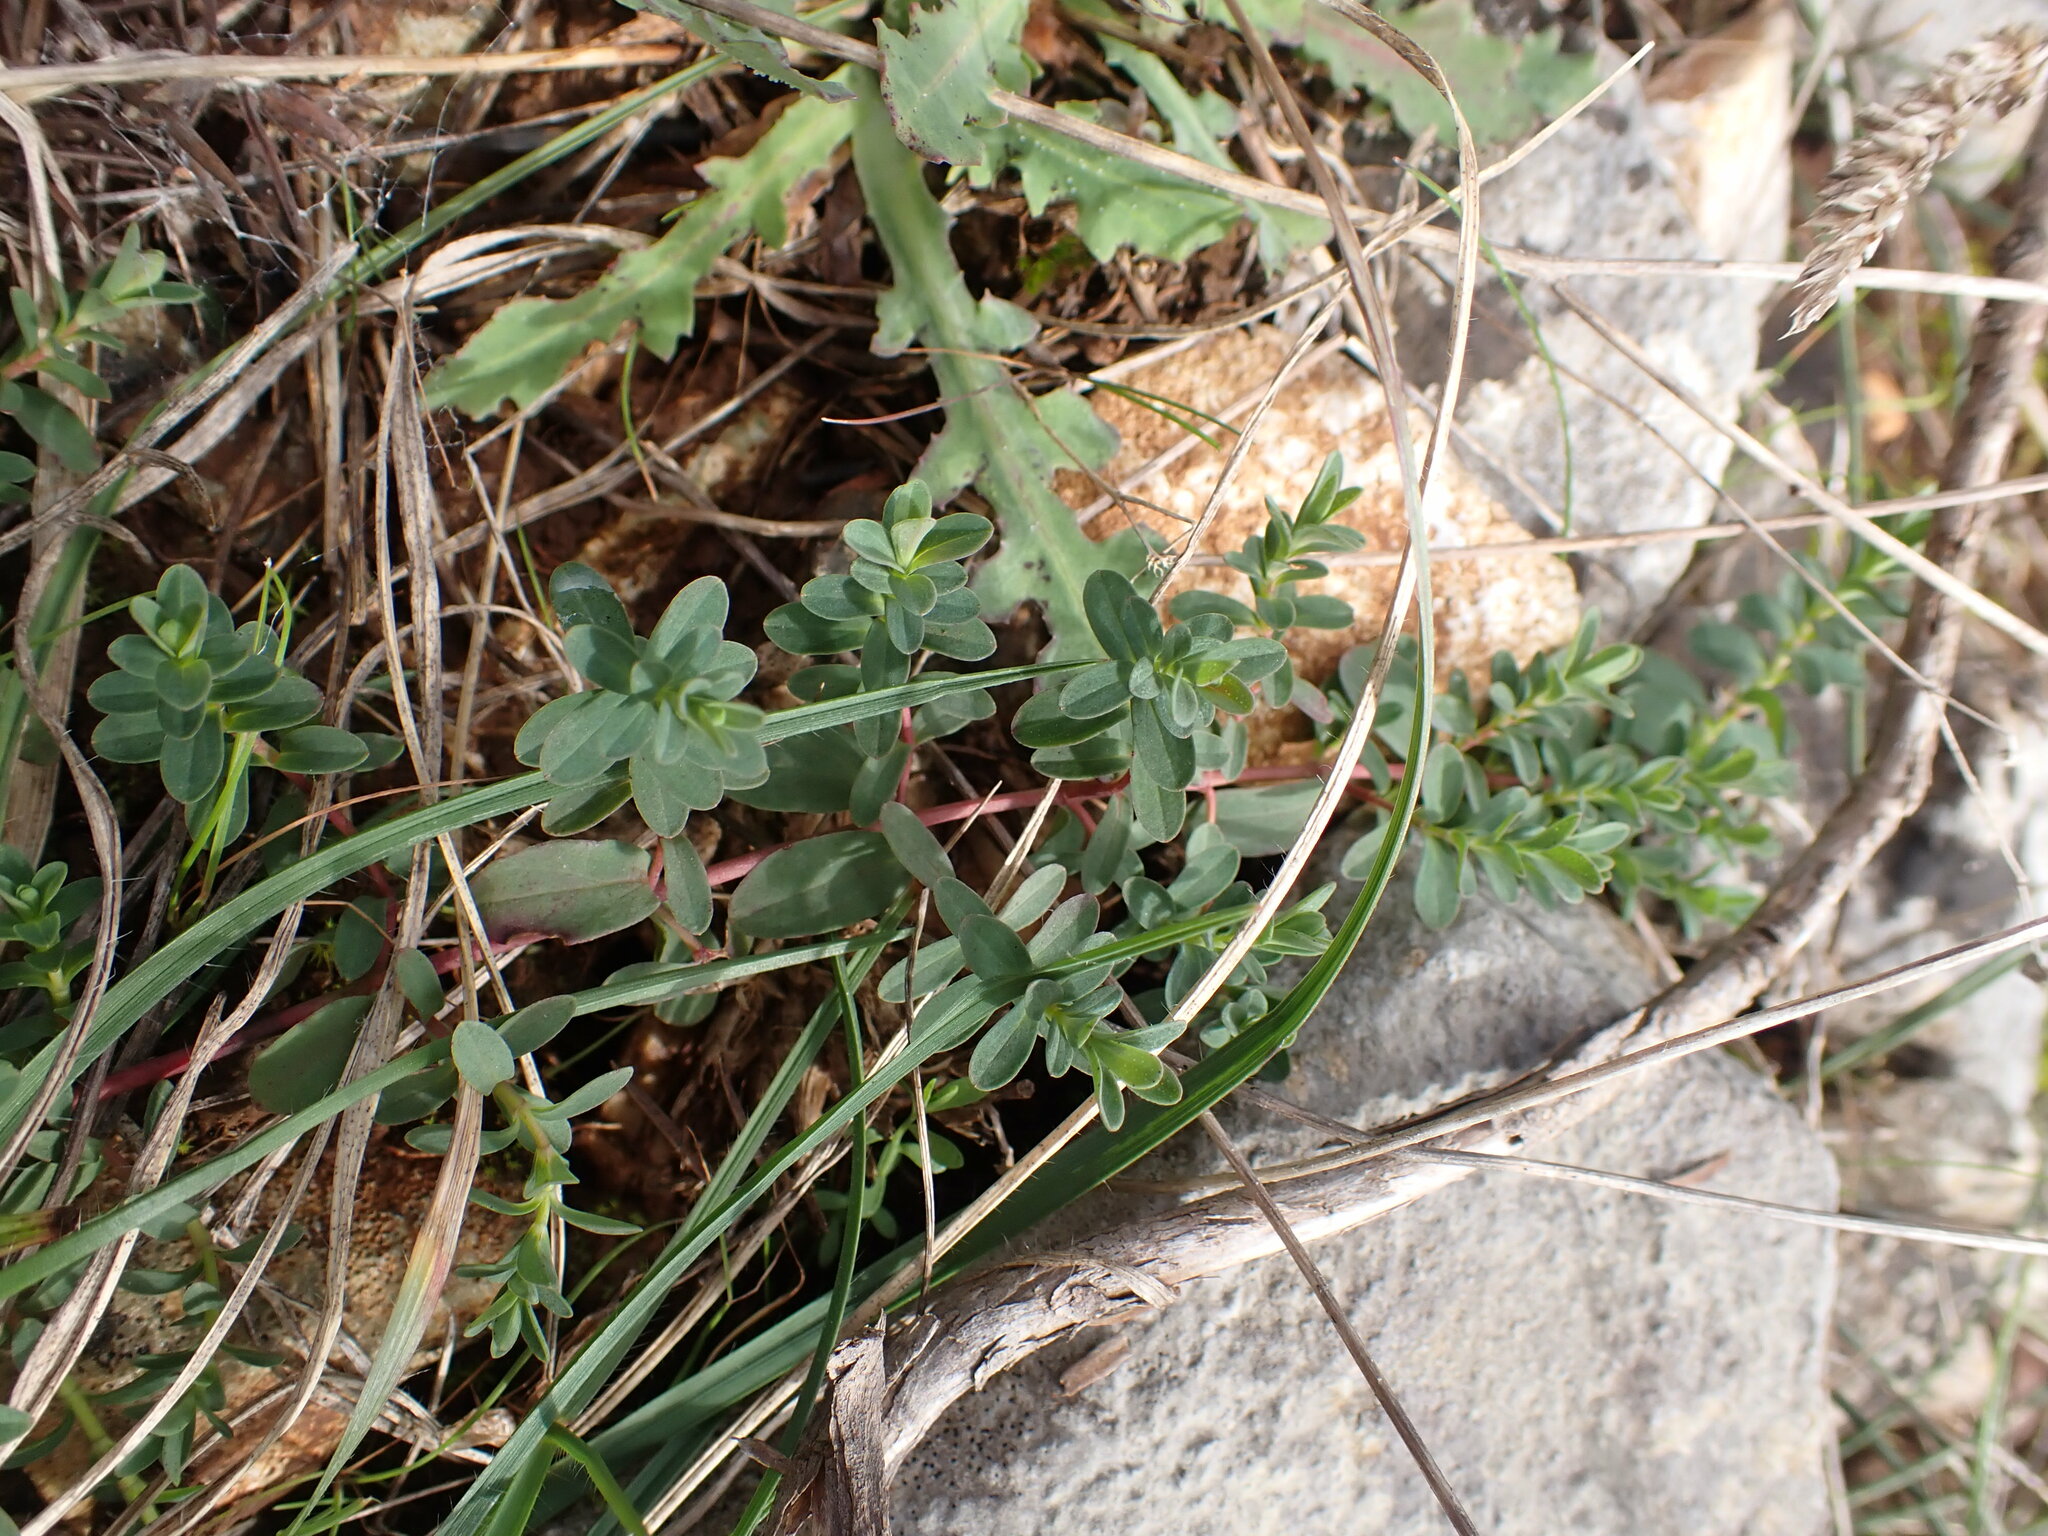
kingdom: Plantae
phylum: Tracheophyta
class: Magnoliopsida
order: Malpighiales
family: Hypericaceae
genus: Hypericum
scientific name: Hypericum perforatum
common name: Common st. johnswort
